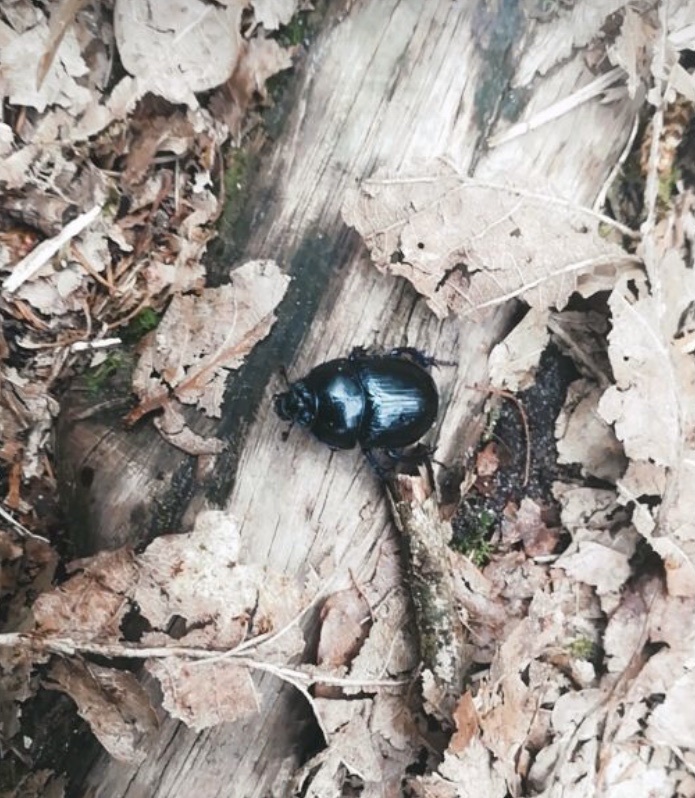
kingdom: Animalia
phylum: Arthropoda
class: Insecta
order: Coleoptera
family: Geotrupidae
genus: Anoplotrupes
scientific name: Anoplotrupes stercorosus
